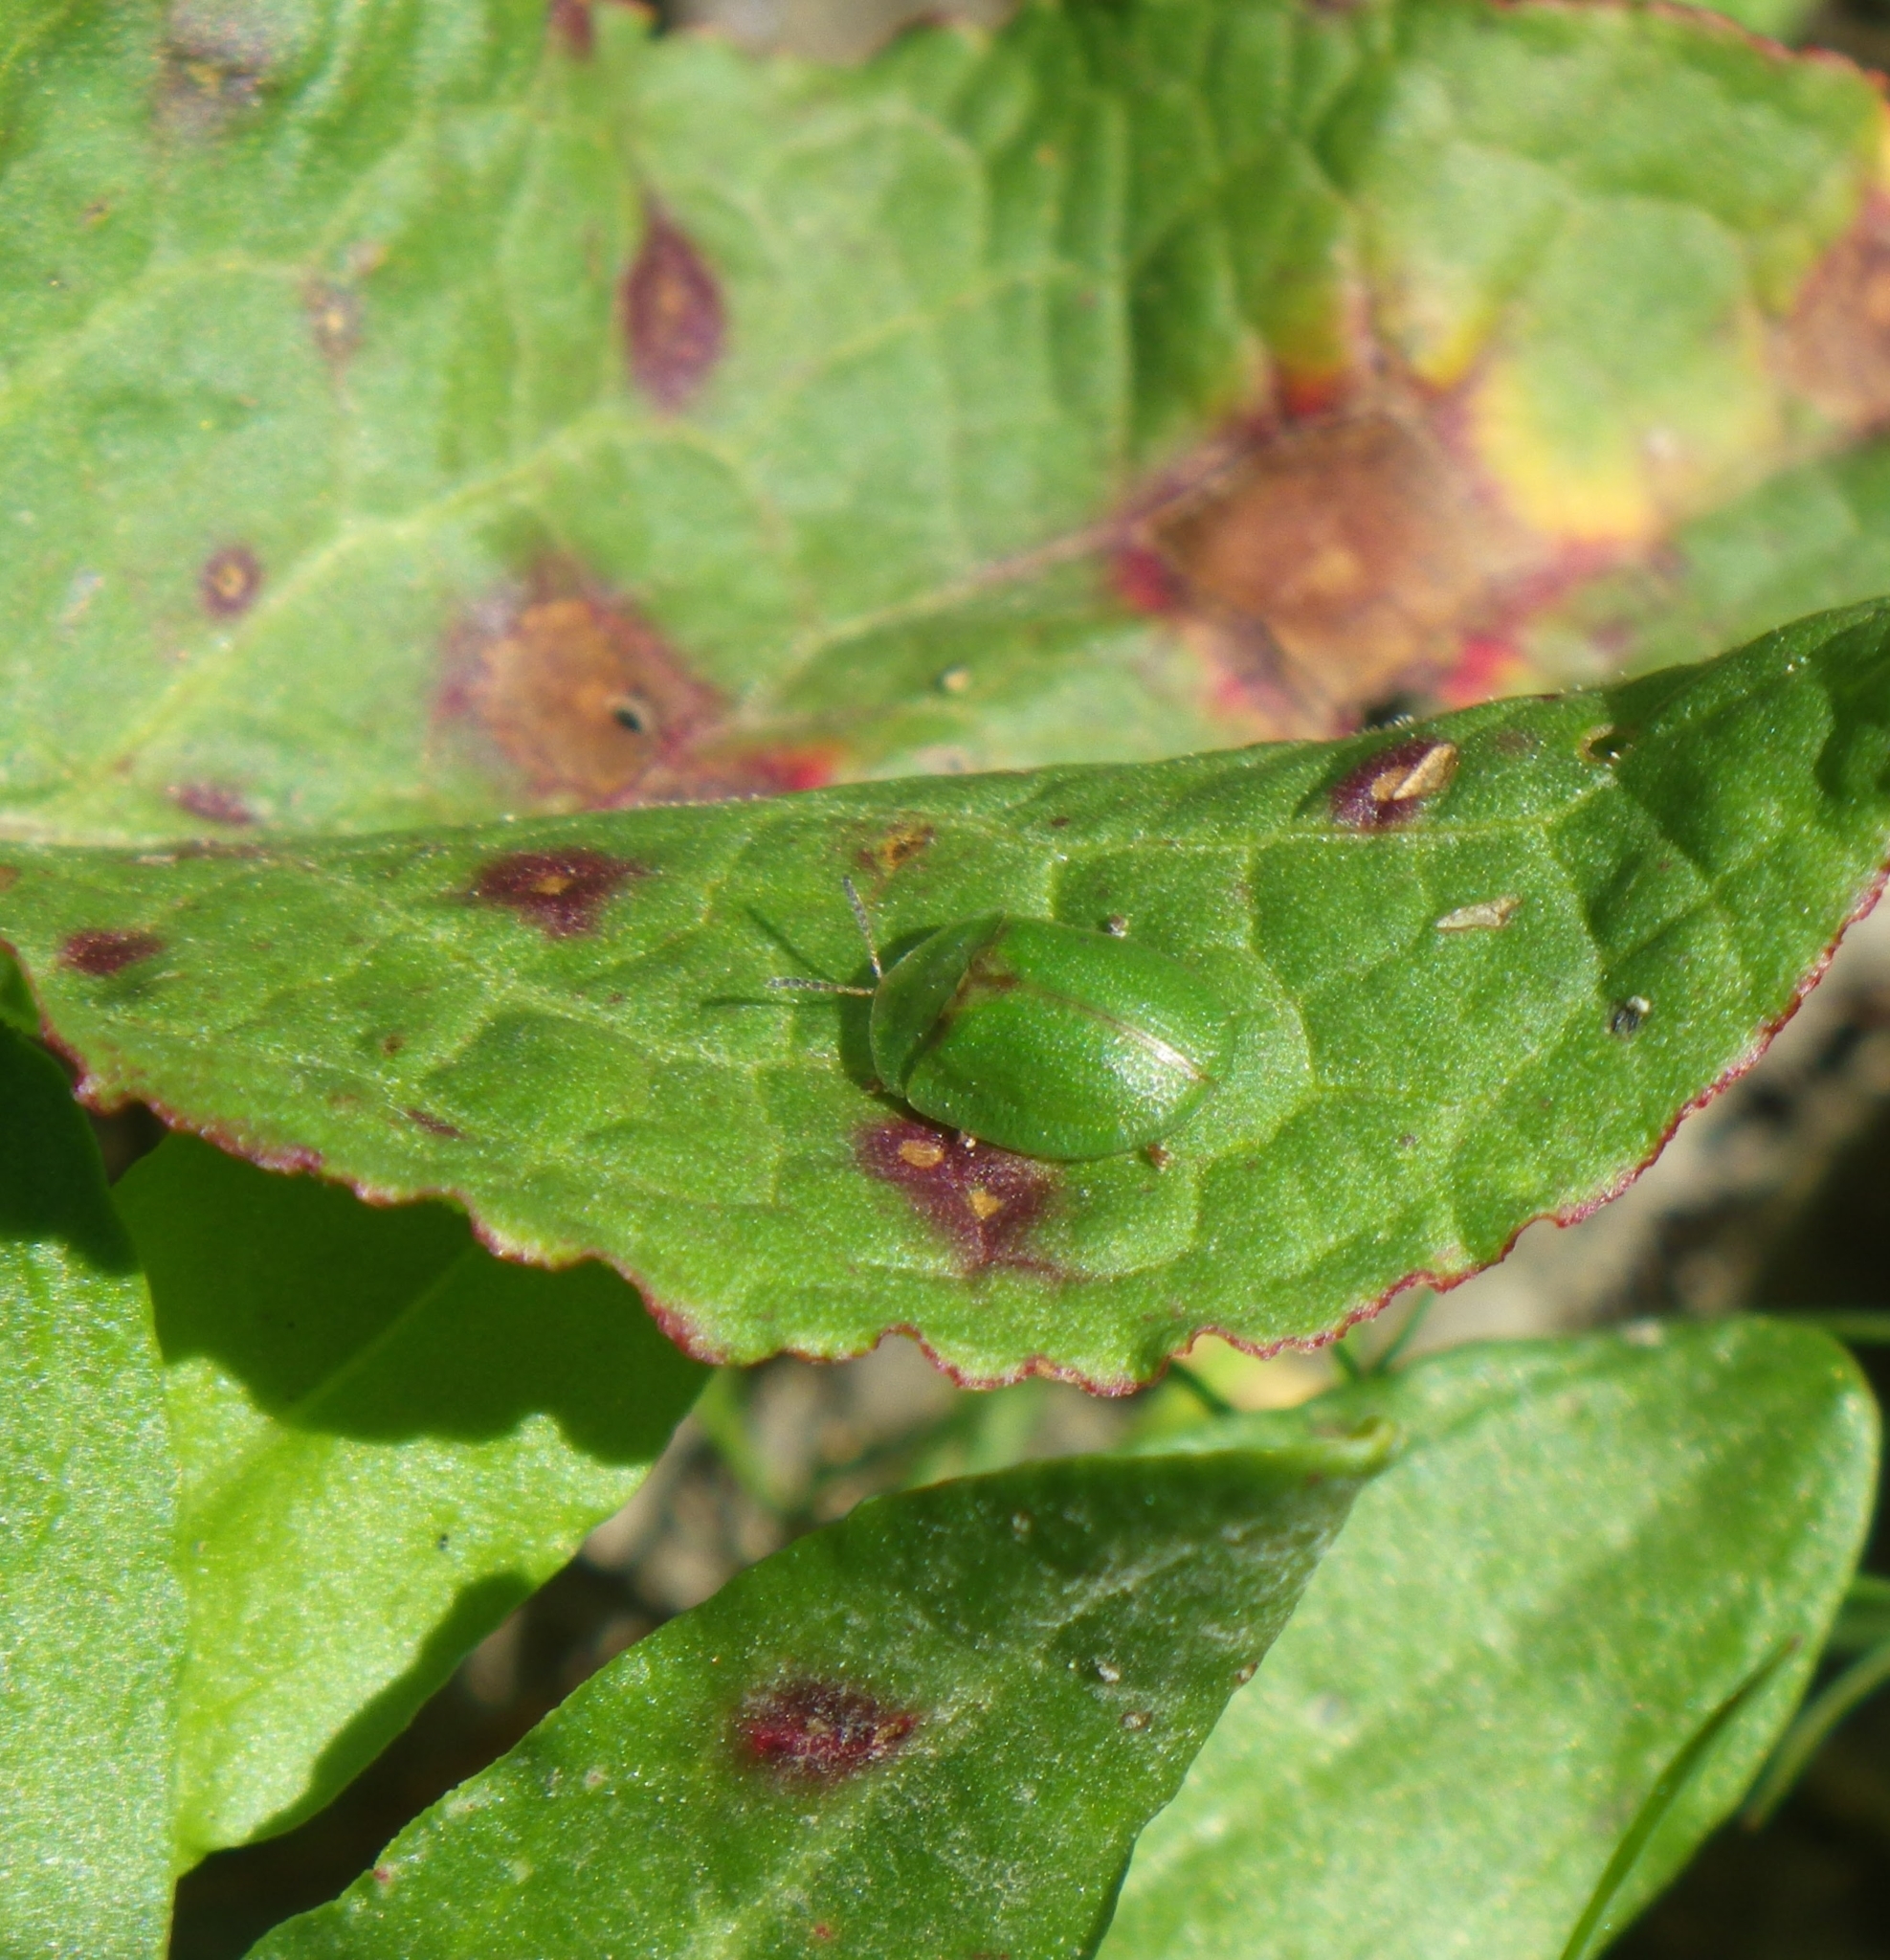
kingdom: Animalia
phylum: Arthropoda
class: Insecta
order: Coleoptera
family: Chrysomelidae
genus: Cassida
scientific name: Cassida rubiginosa
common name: Thistle tortoise beetle
